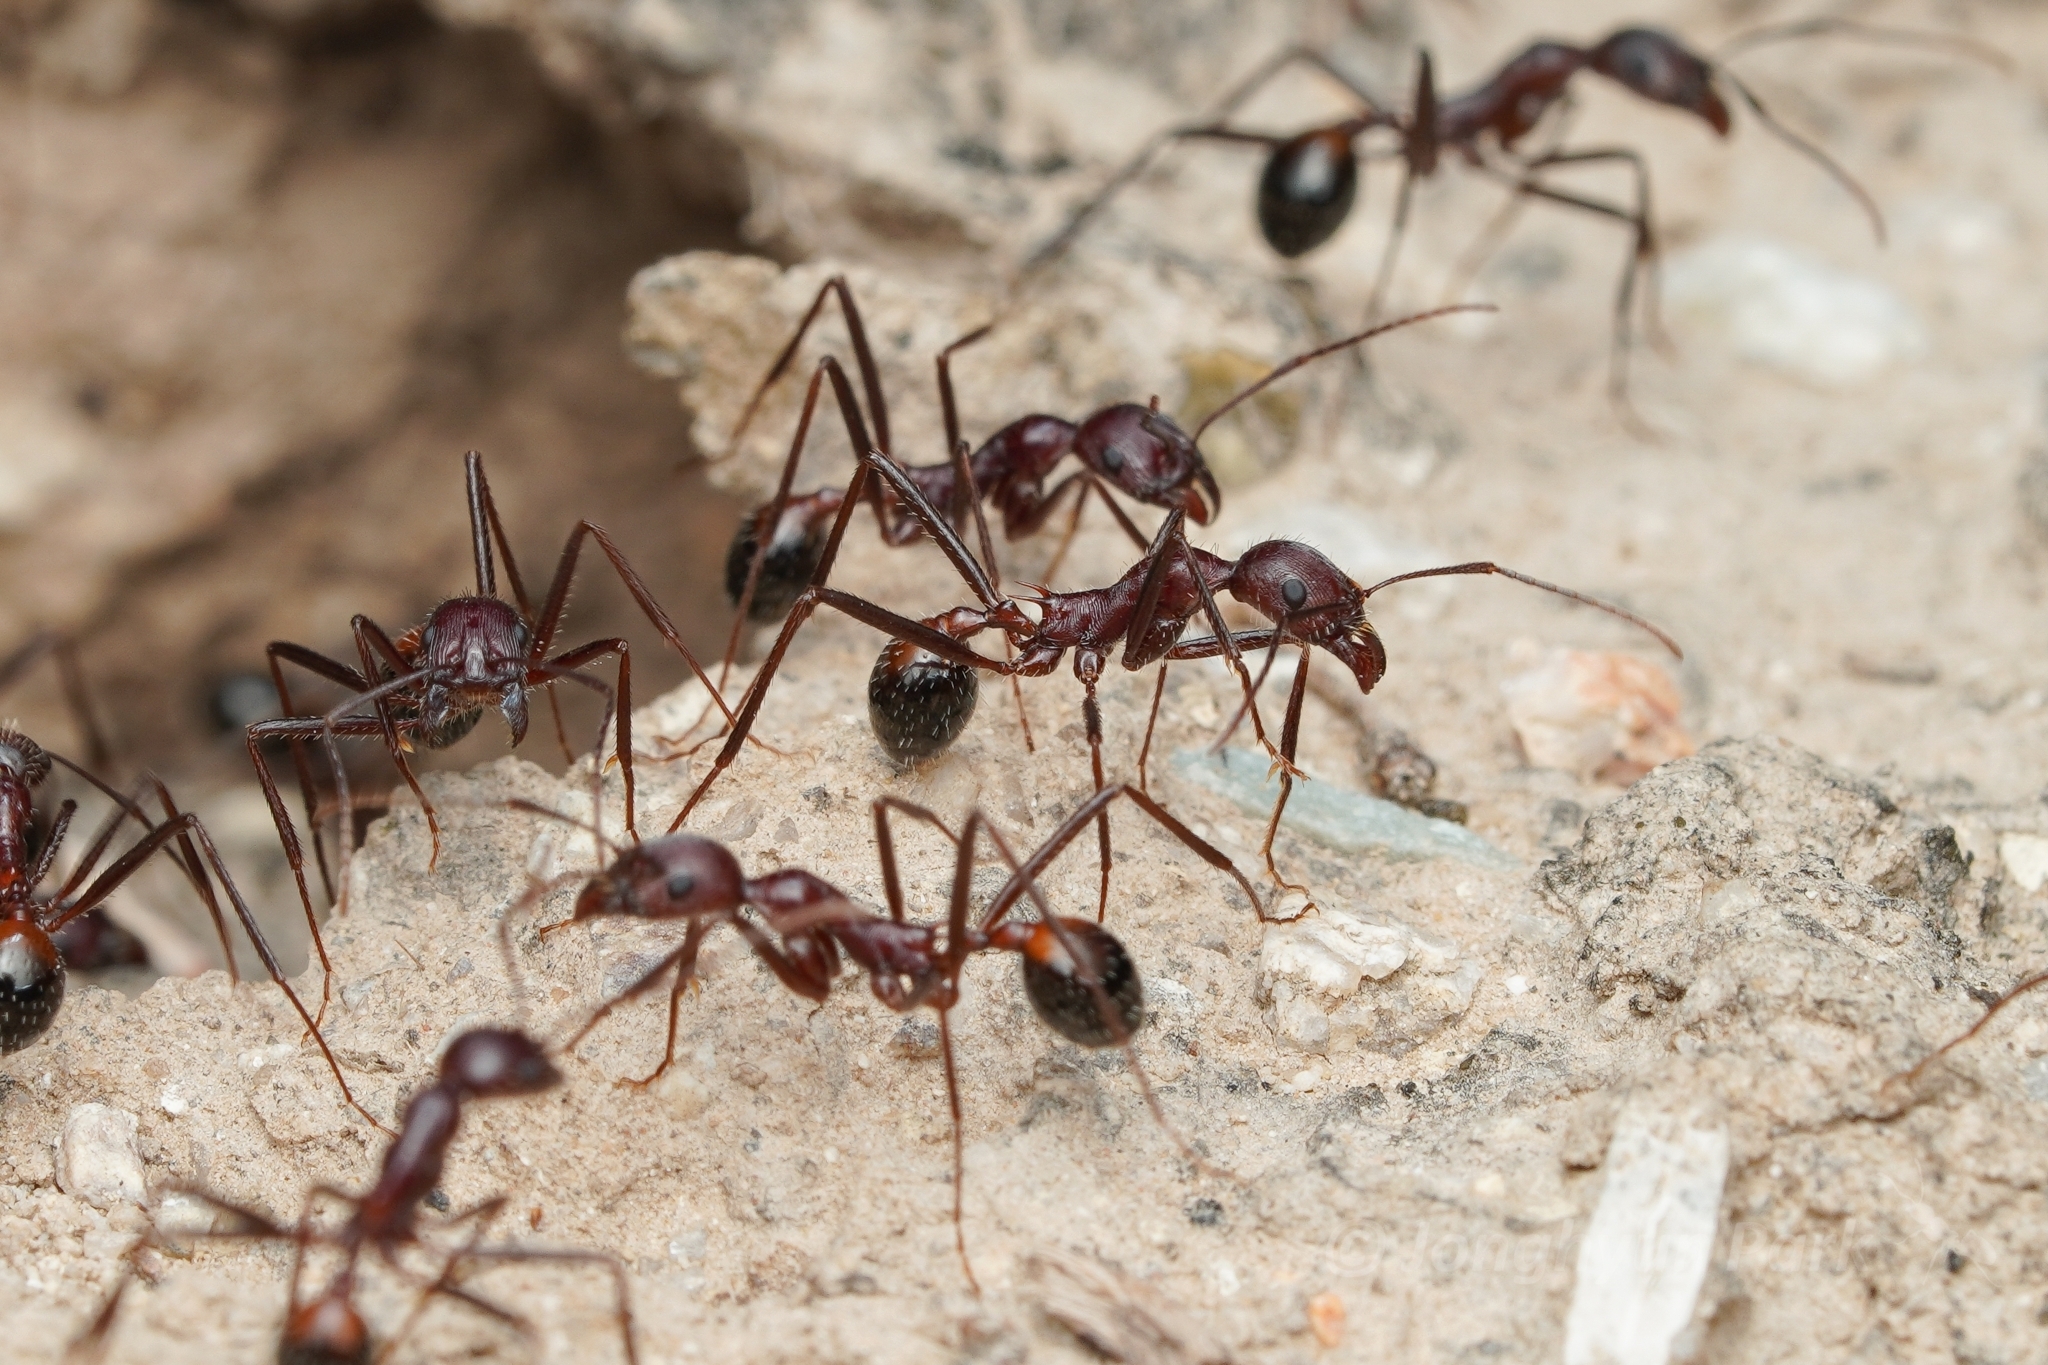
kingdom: Animalia
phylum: Arthropoda
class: Insecta
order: Hymenoptera
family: Formicidae
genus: Novomessor
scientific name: Novomessor cockerelli
